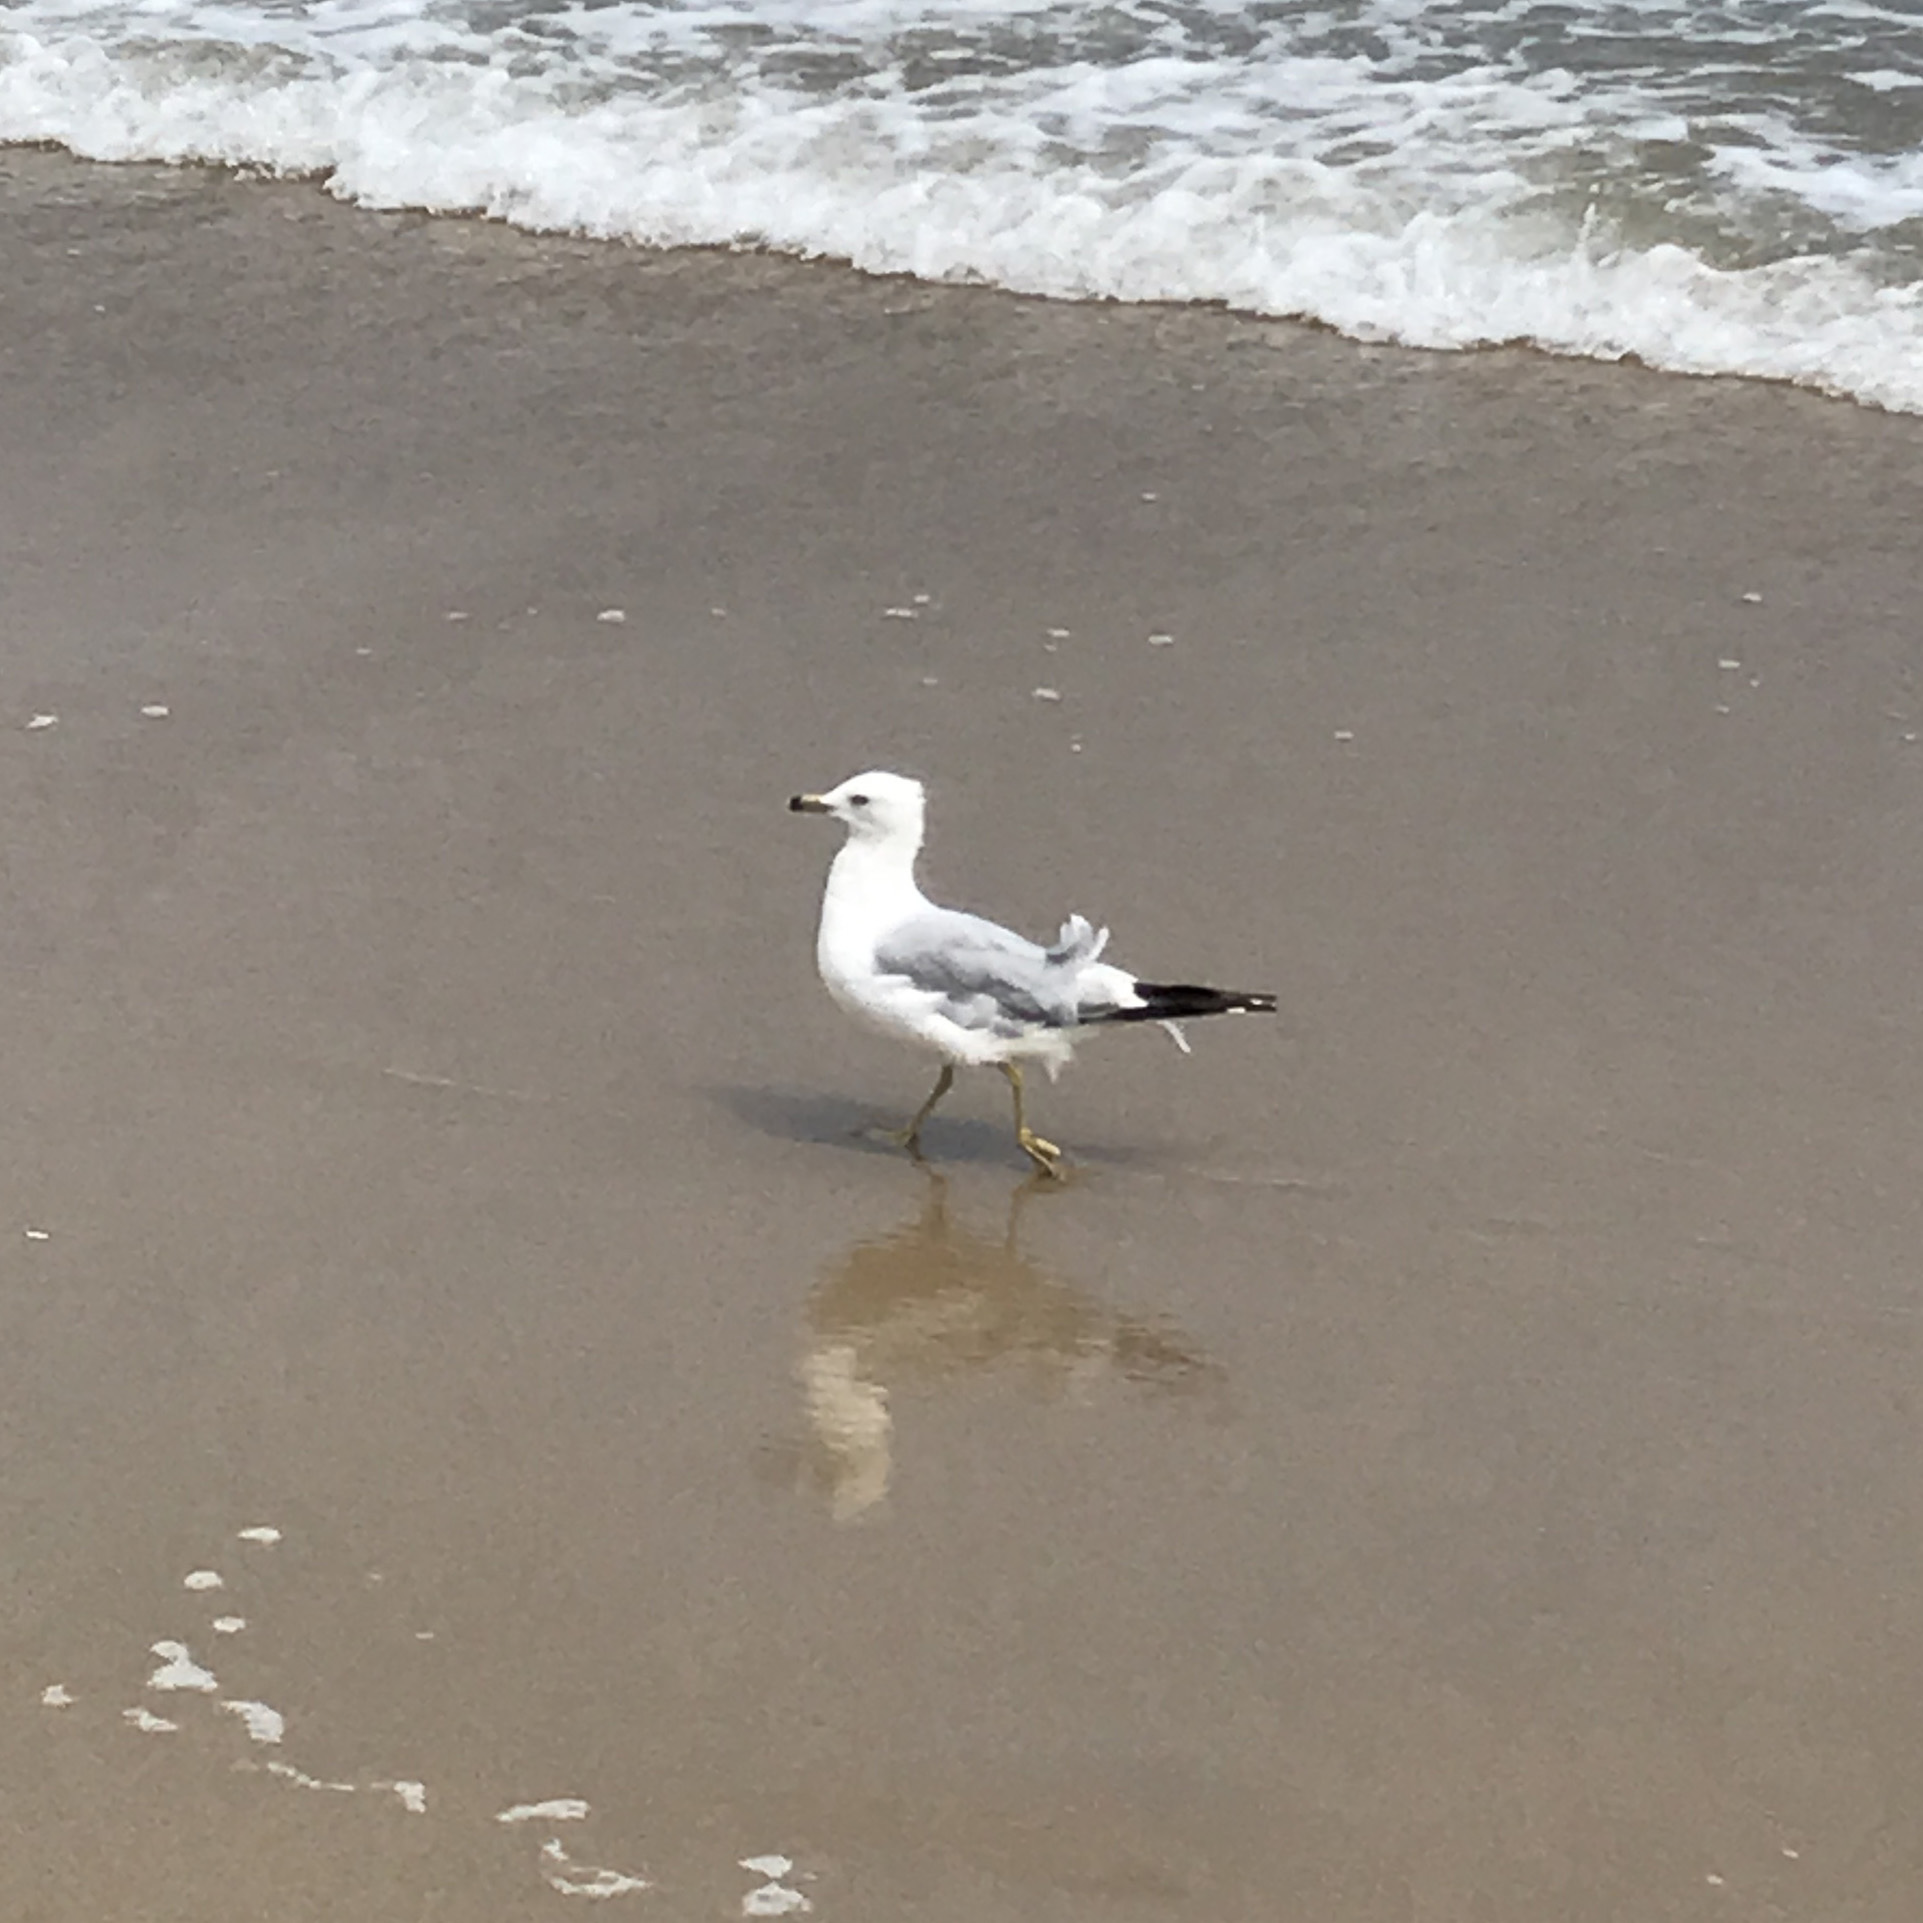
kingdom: Animalia
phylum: Chordata
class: Aves
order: Charadriiformes
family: Laridae
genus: Larus
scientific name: Larus delawarensis
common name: Ring-billed gull
